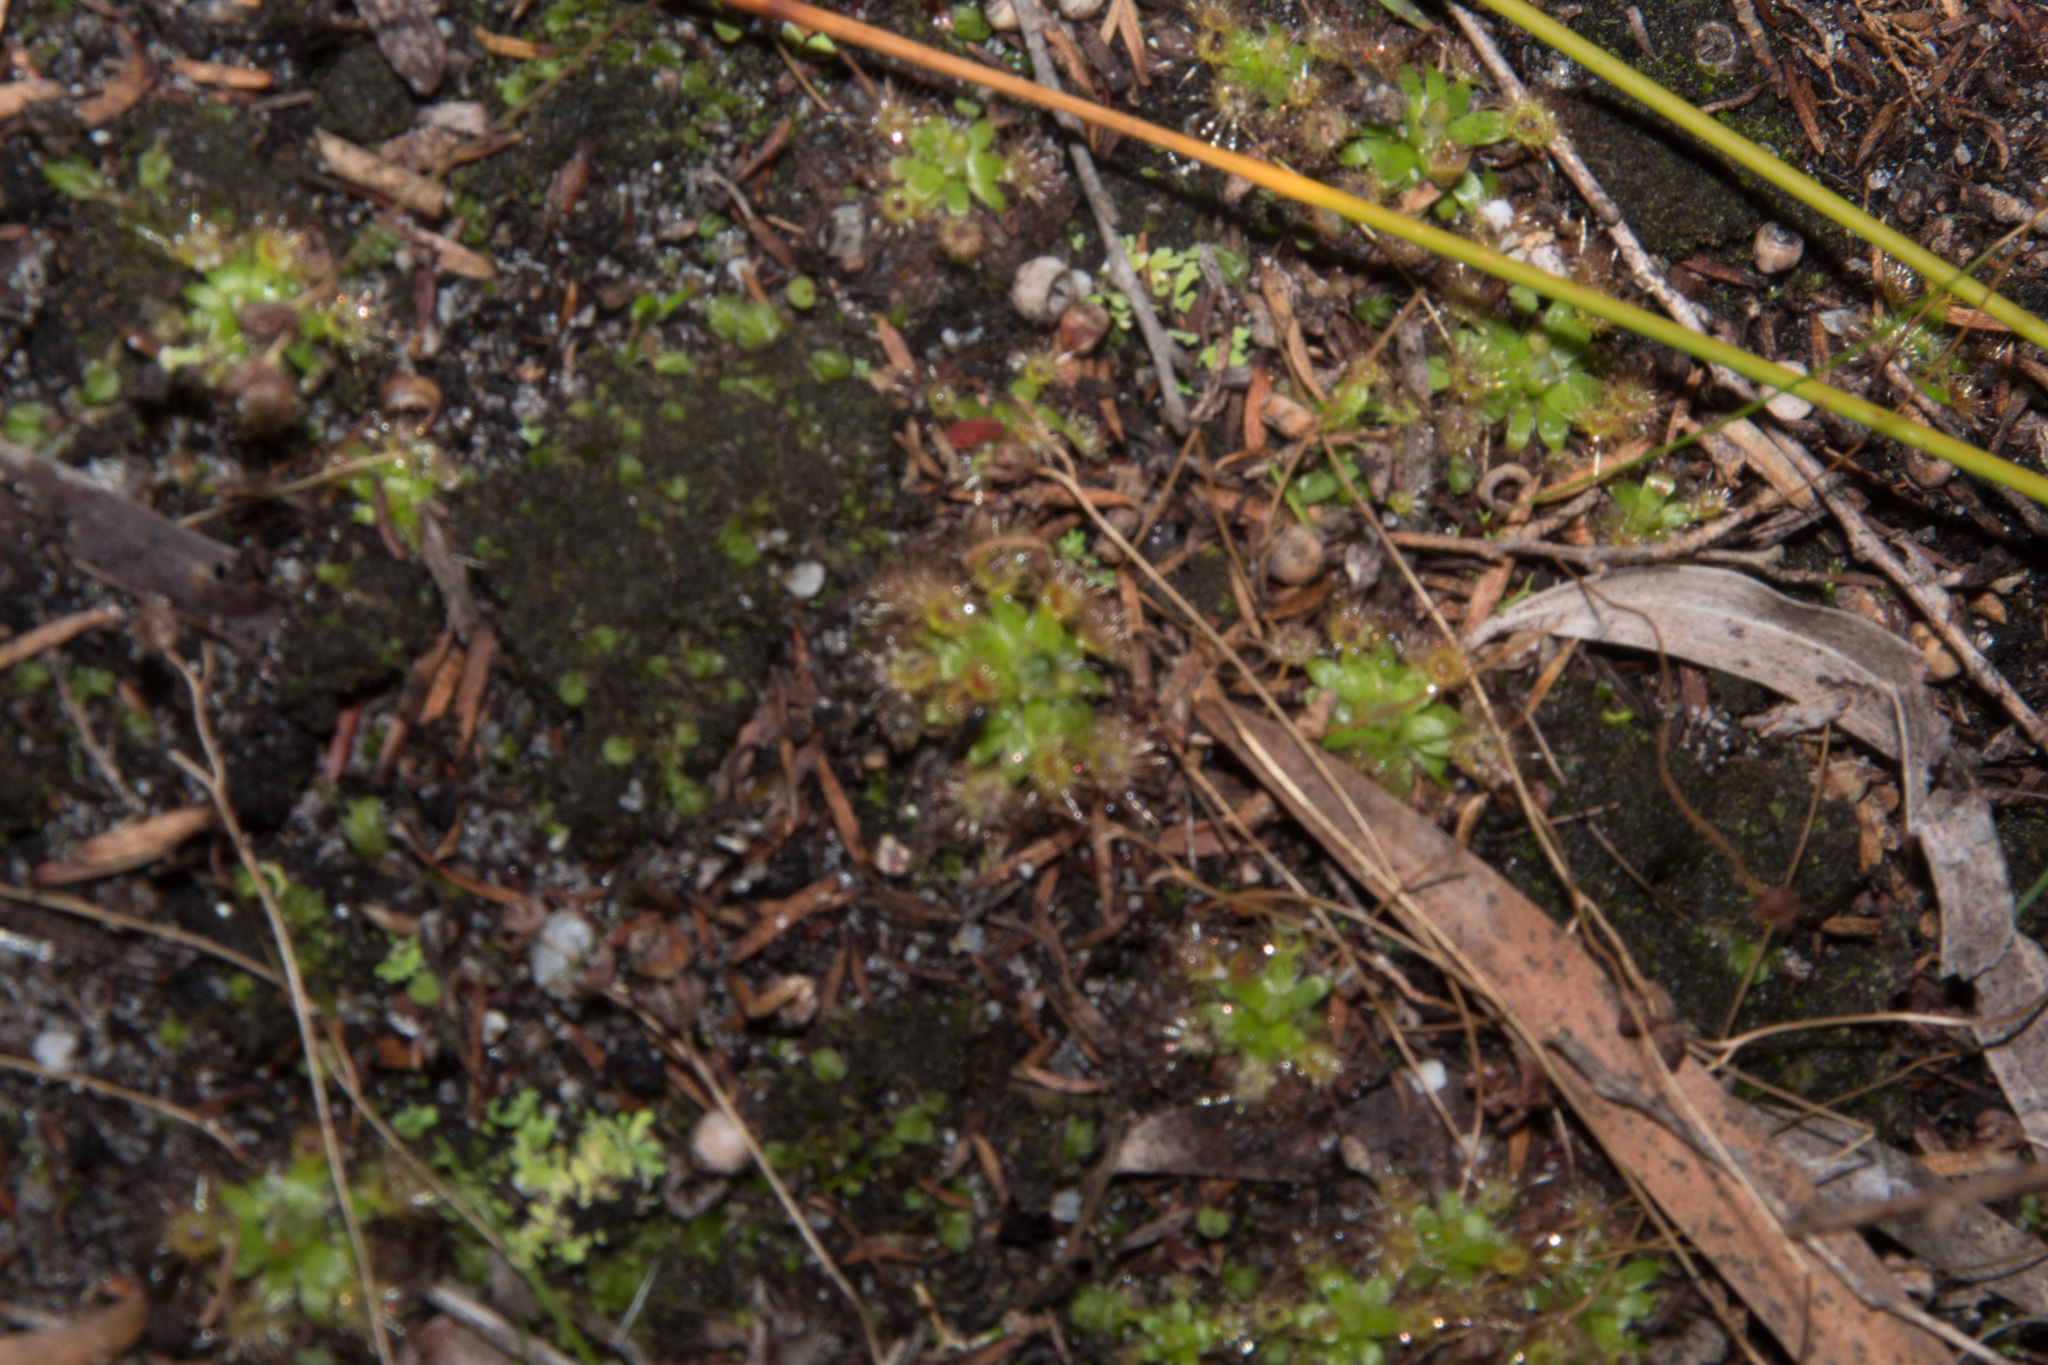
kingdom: Plantae
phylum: Tracheophyta
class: Magnoliopsida
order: Caryophyllales
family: Droseraceae
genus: Drosera
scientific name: Drosera pulchella
